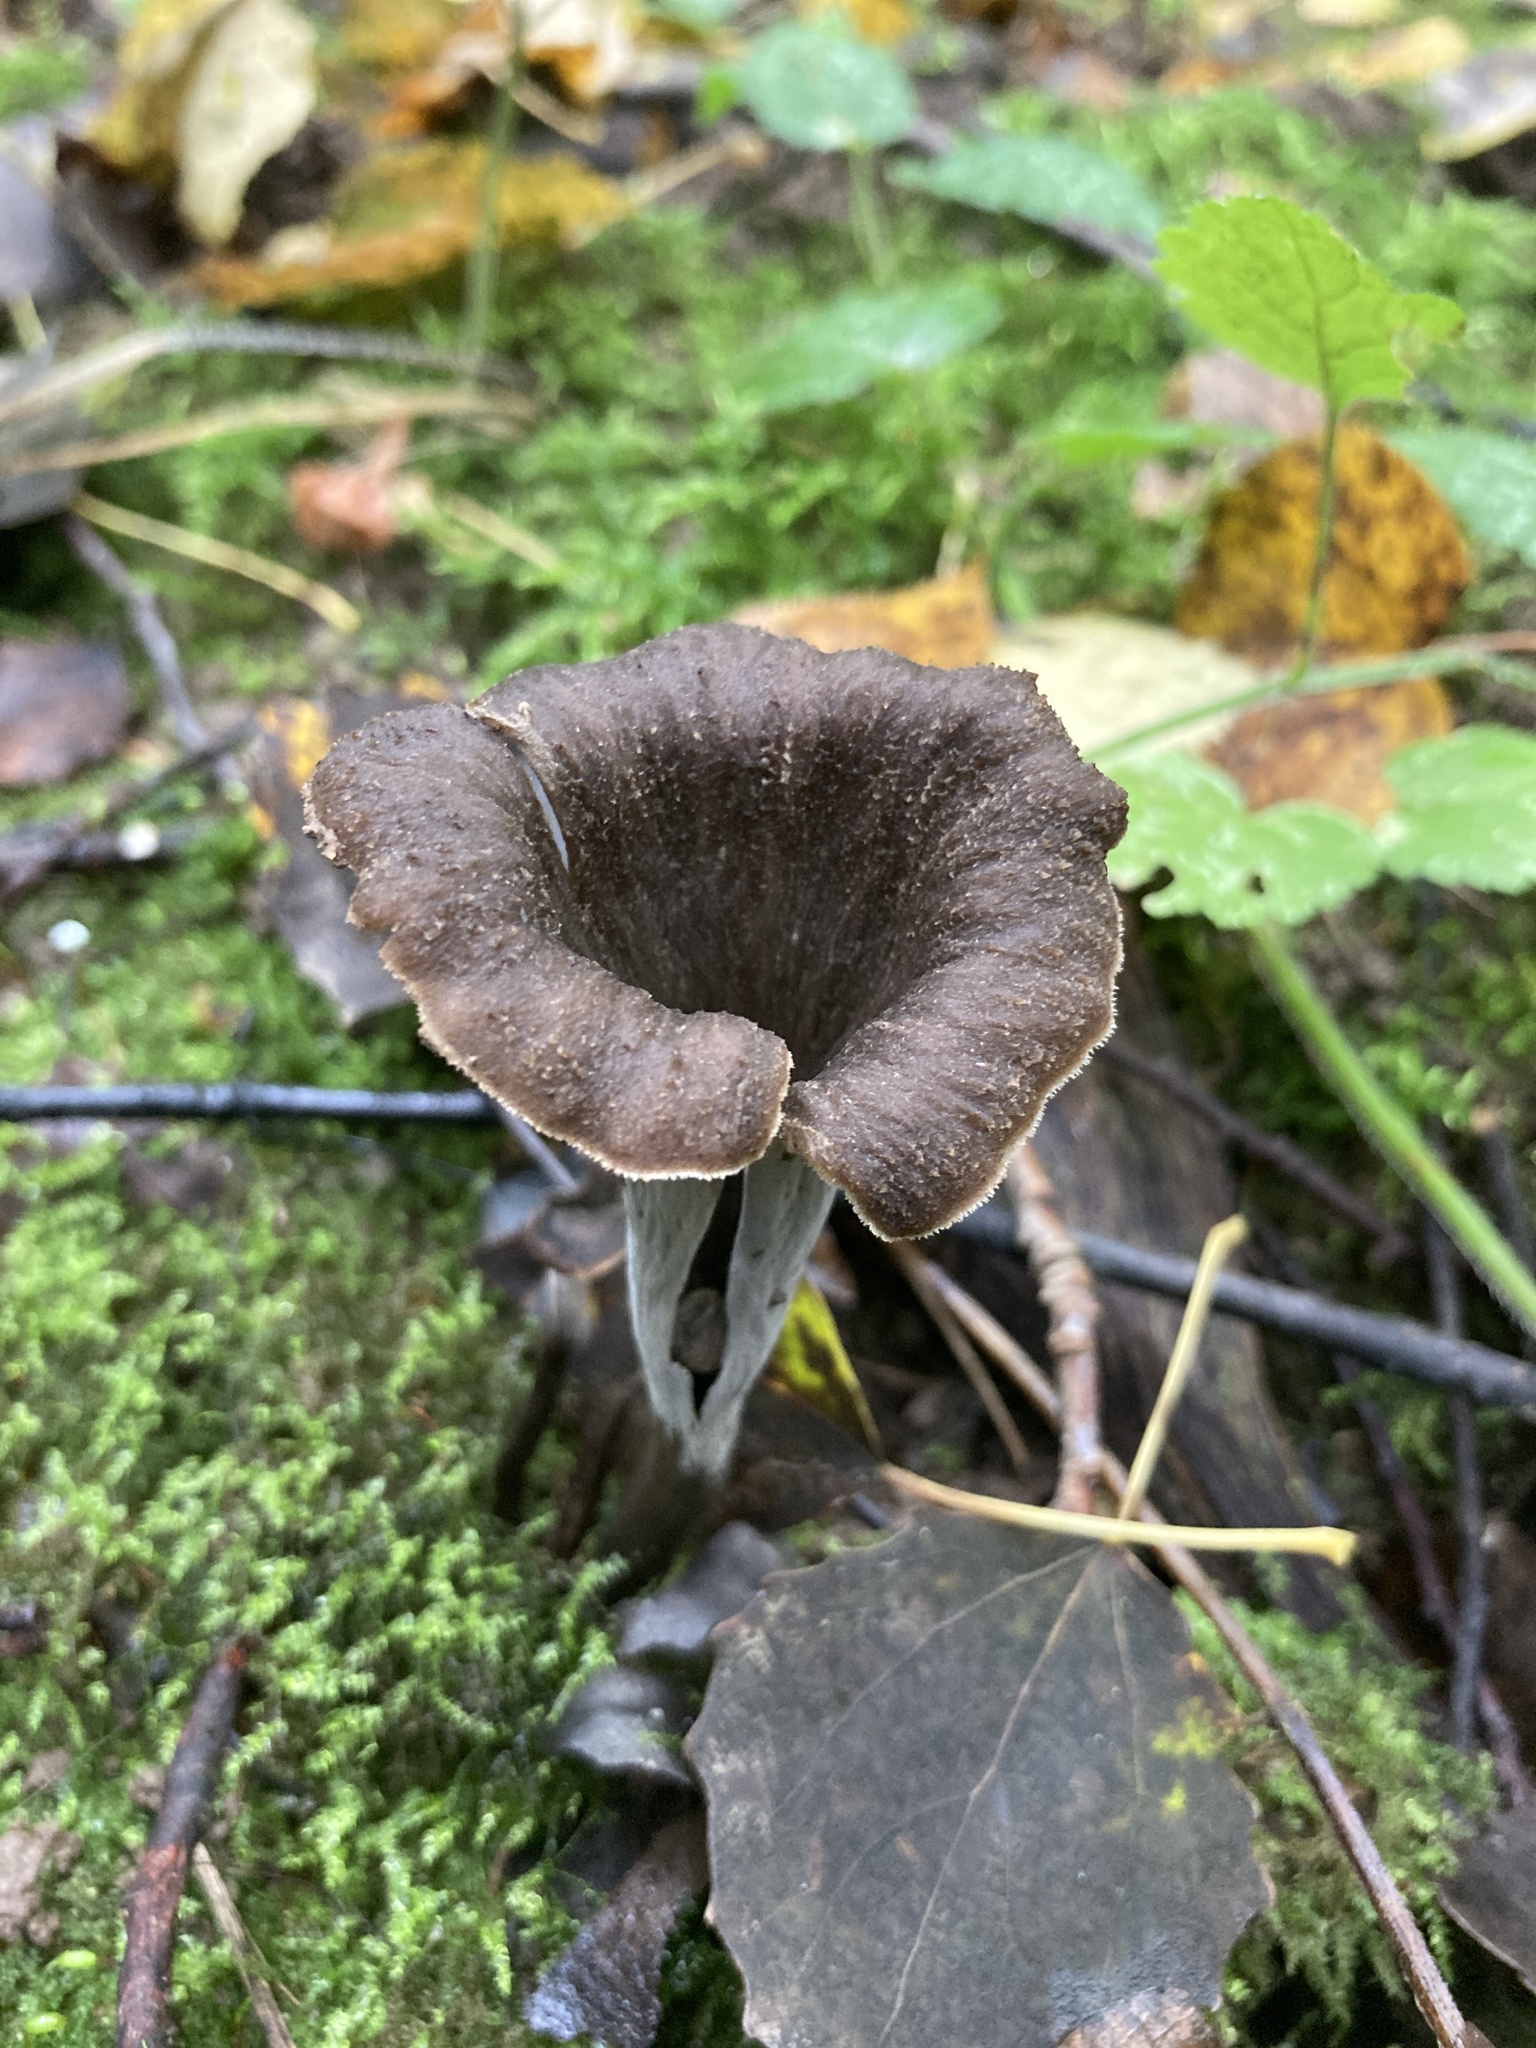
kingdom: Fungi
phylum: Basidiomycota
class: Agaricomycetes
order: Cantharellales
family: Hydnaceae
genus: Craterellus
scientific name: Craterellus cornucopioides
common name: Horn of plenty
